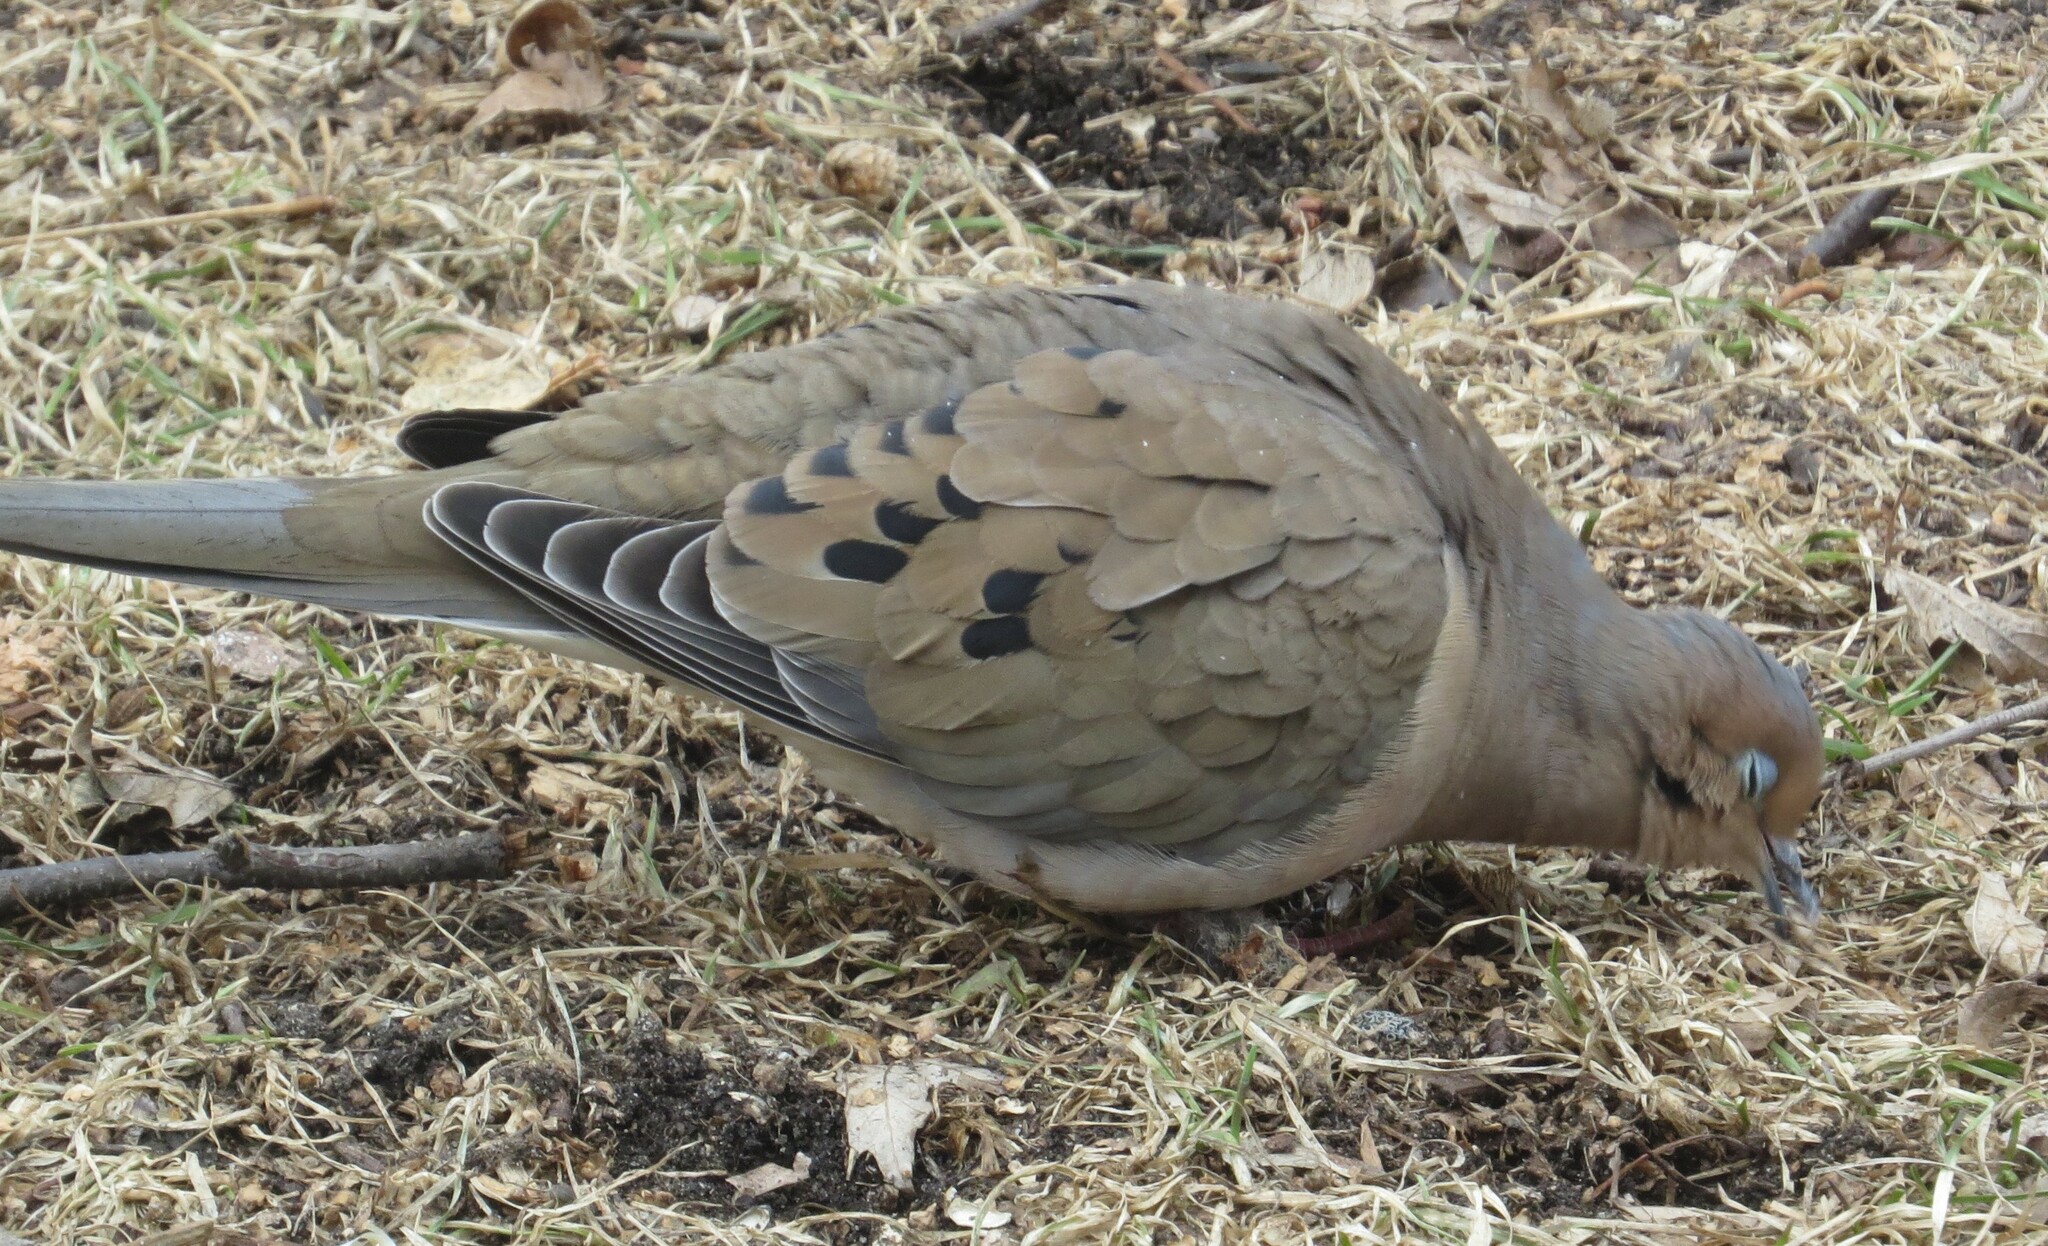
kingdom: Animalia
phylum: Chordata
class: Aves
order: Columbiformes
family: Columbidae
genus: Zenaida
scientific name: Zenaida macroura
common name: Mourning dove
